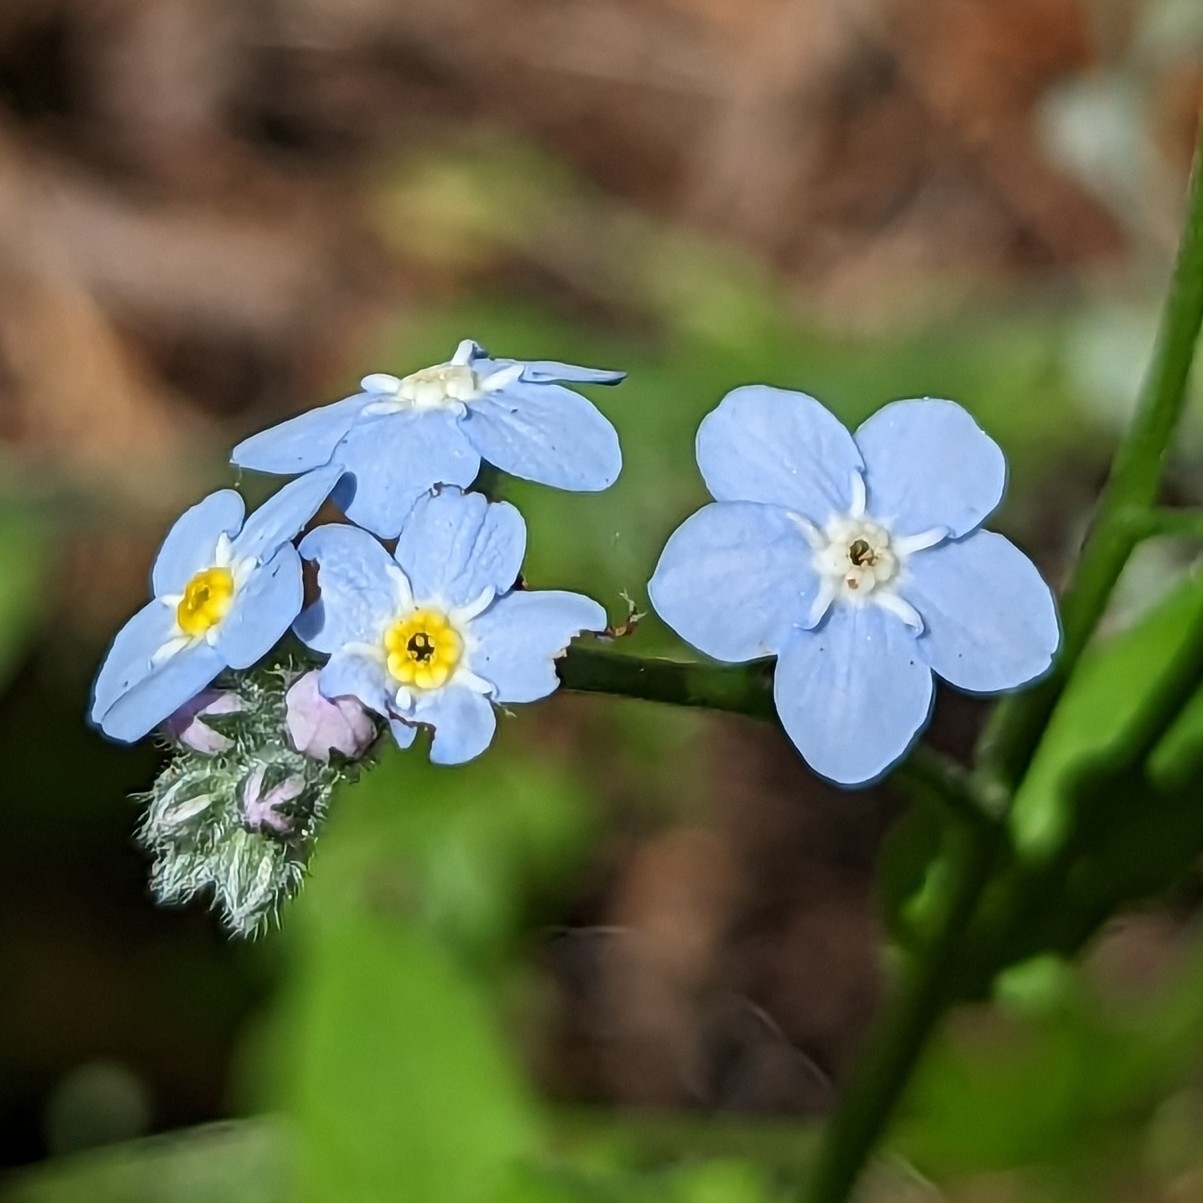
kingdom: Plantae
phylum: Tracheophyta
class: Magnoliopsida
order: Boraginales
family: Boraginaceae
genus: Myosotis
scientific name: Myosotis latifolia
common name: Broadleaf forget-me-not
